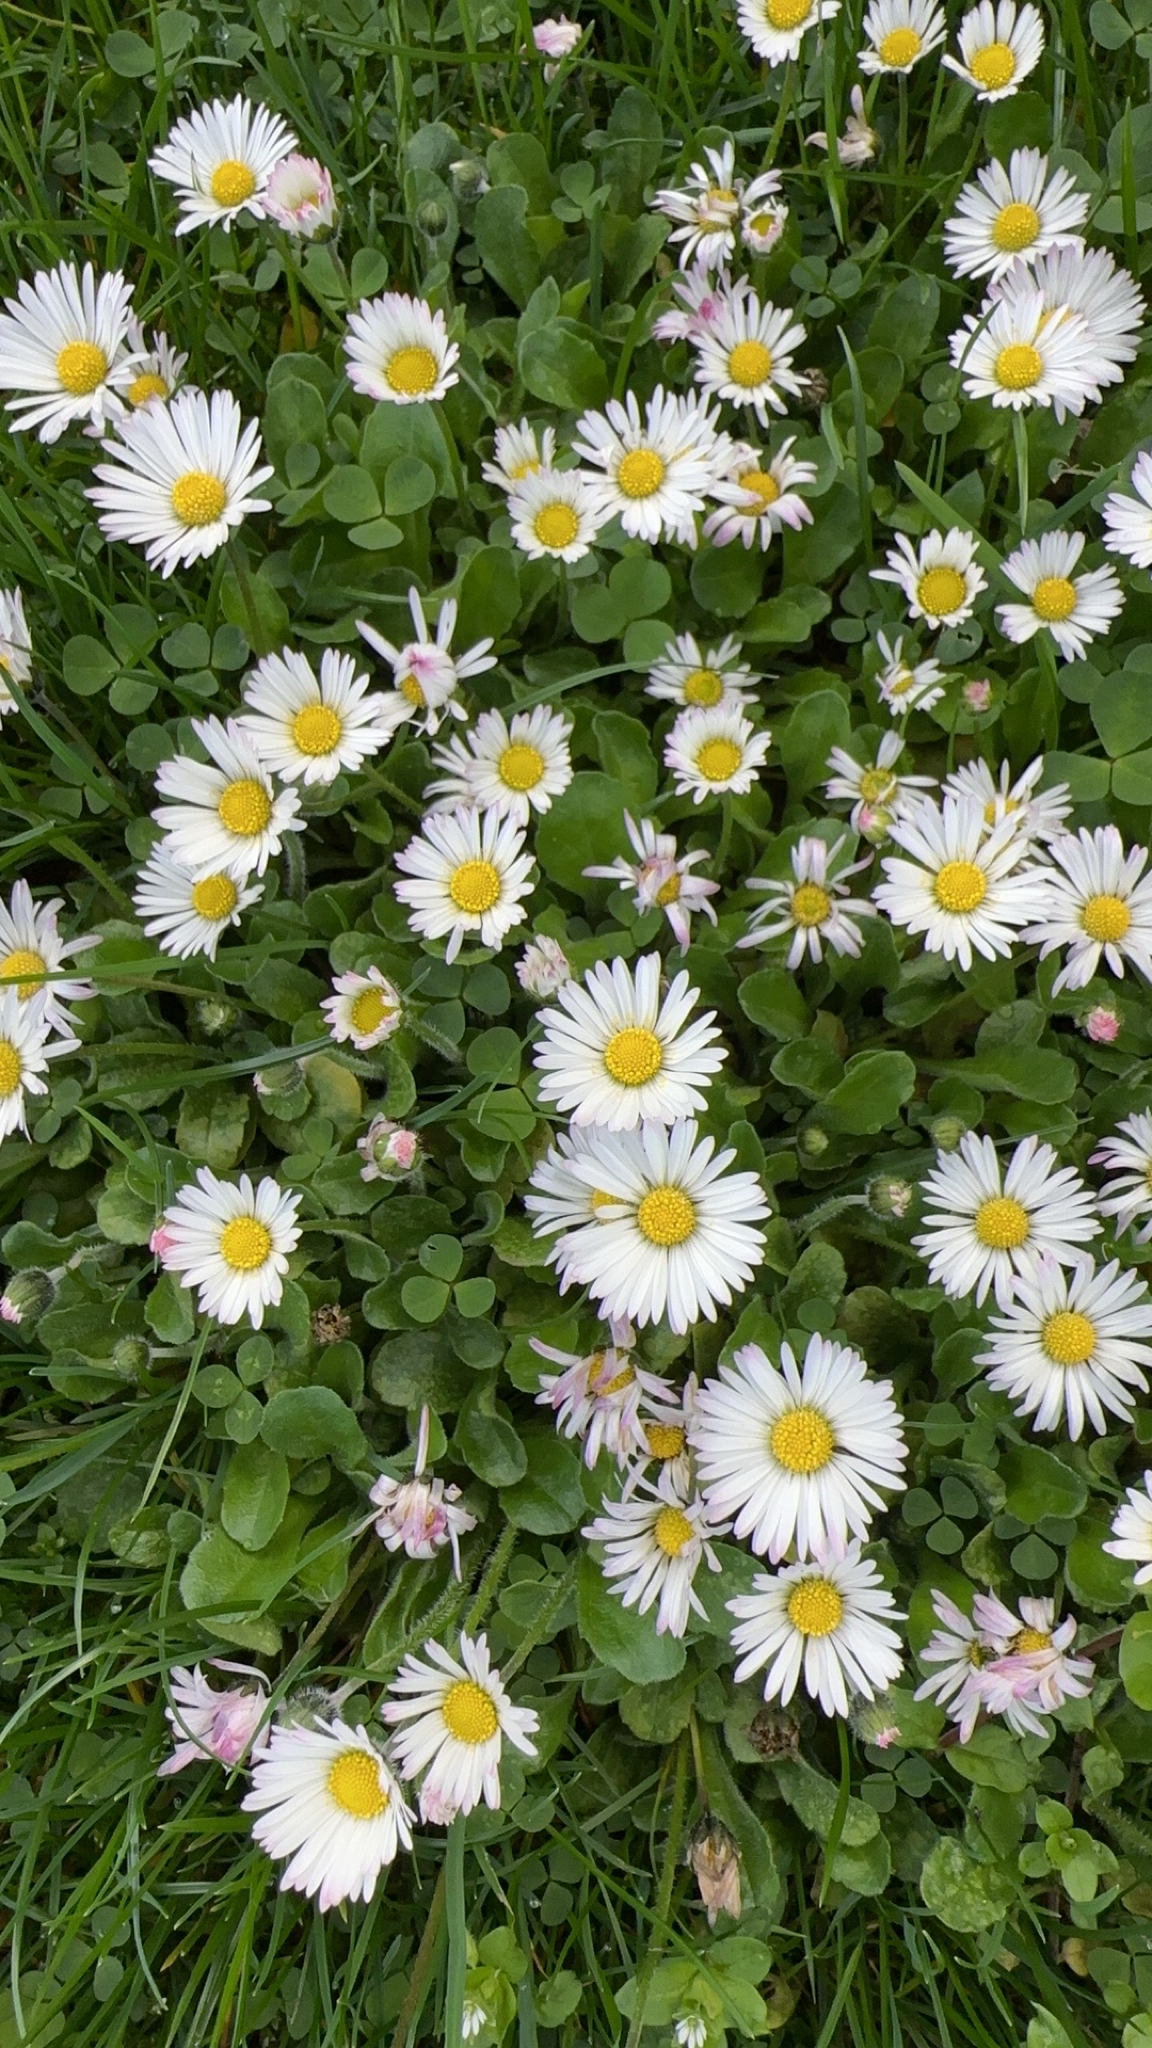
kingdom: Plantae
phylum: Tracheophyta
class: Magnoliopsida
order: Asterales
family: Asteraceae
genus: Bellis
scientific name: Bellis perennis
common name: Lawndaisy
